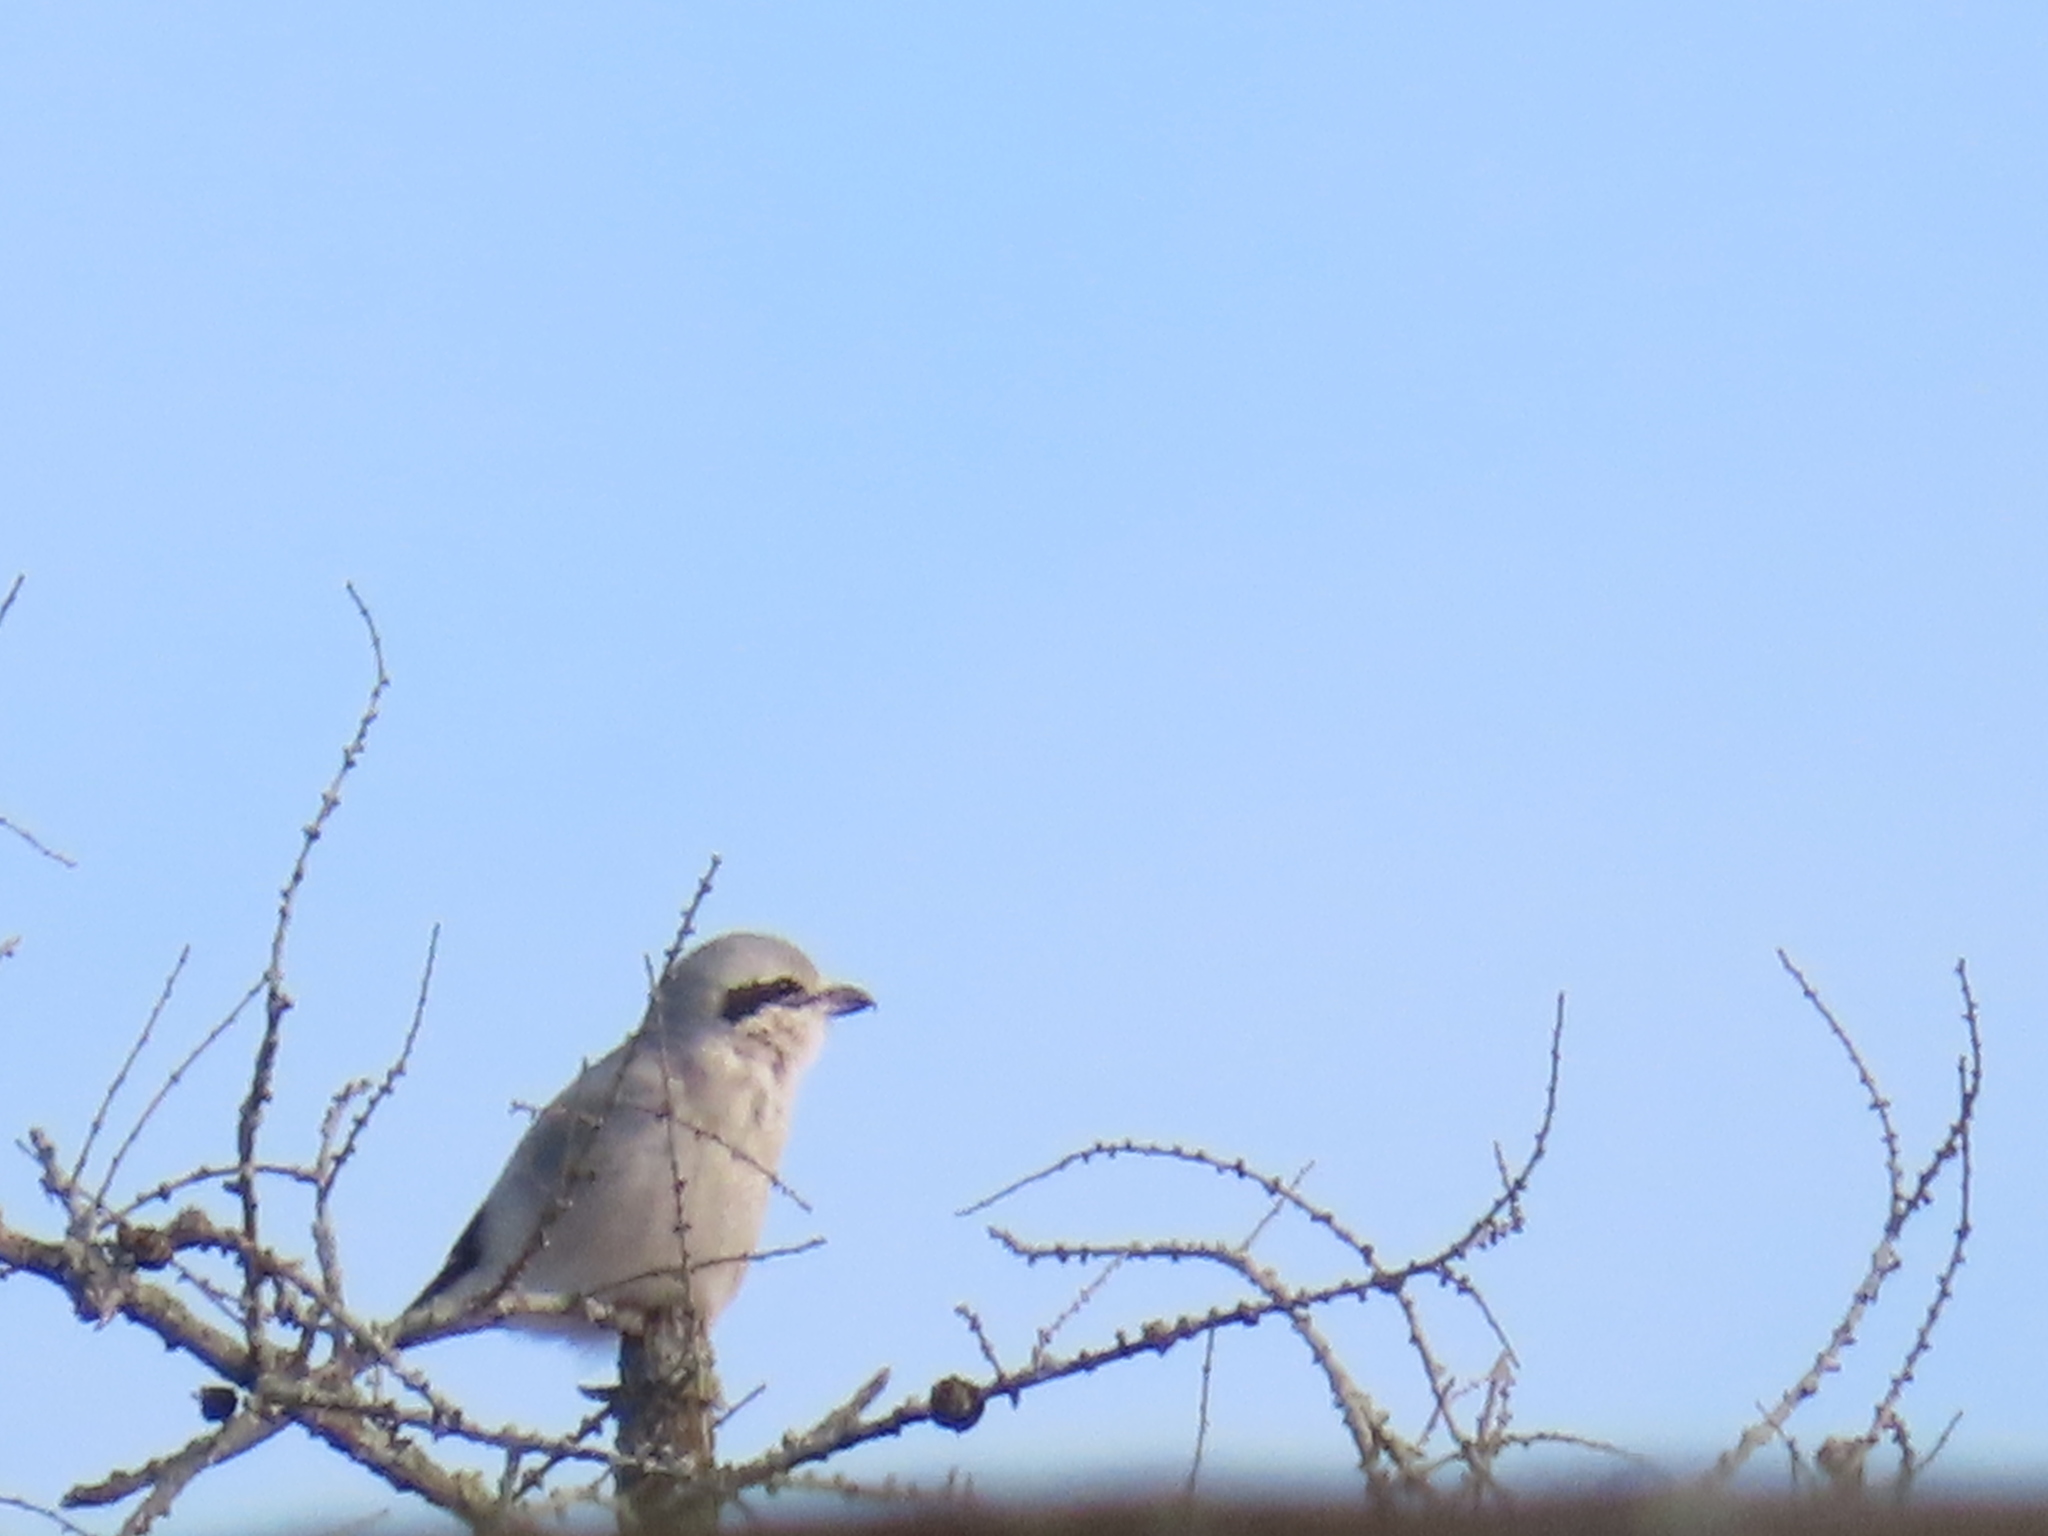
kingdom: Plantae
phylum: Tracheophyta
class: Pinopsida
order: Pinales
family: Pinaceae
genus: Larix
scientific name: Larix laricina
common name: American larch
